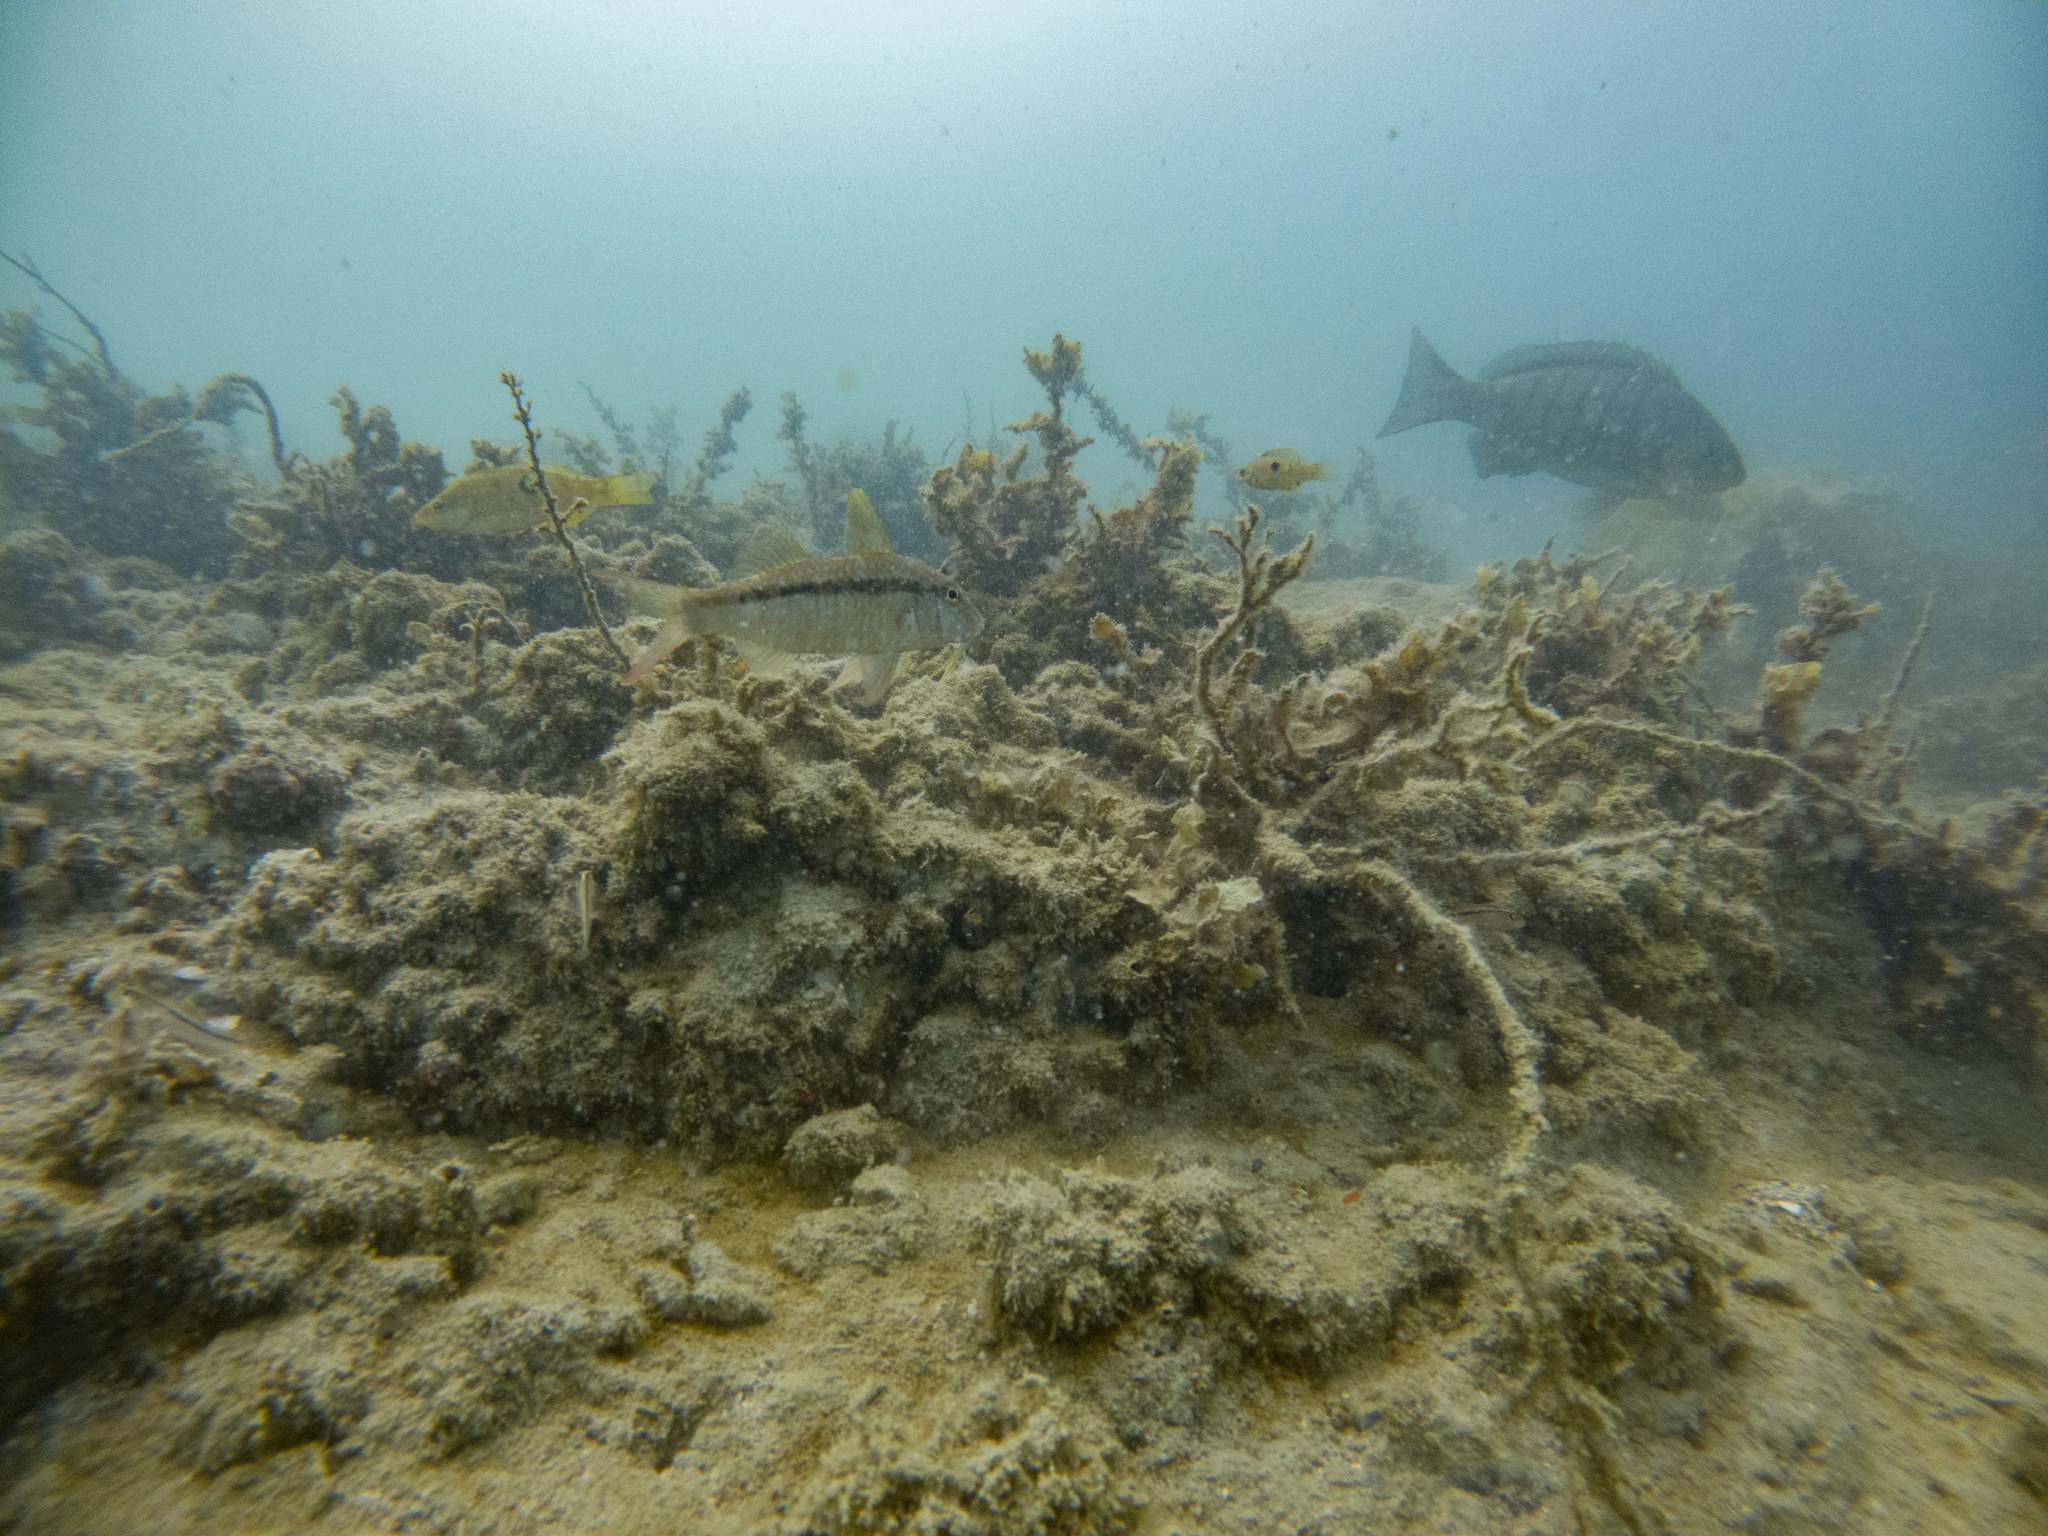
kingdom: Animalia
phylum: Chordata
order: Perciformes
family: Mullidae
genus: Upeneichthys
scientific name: Upeneichthys lineatus
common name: Red mullet
